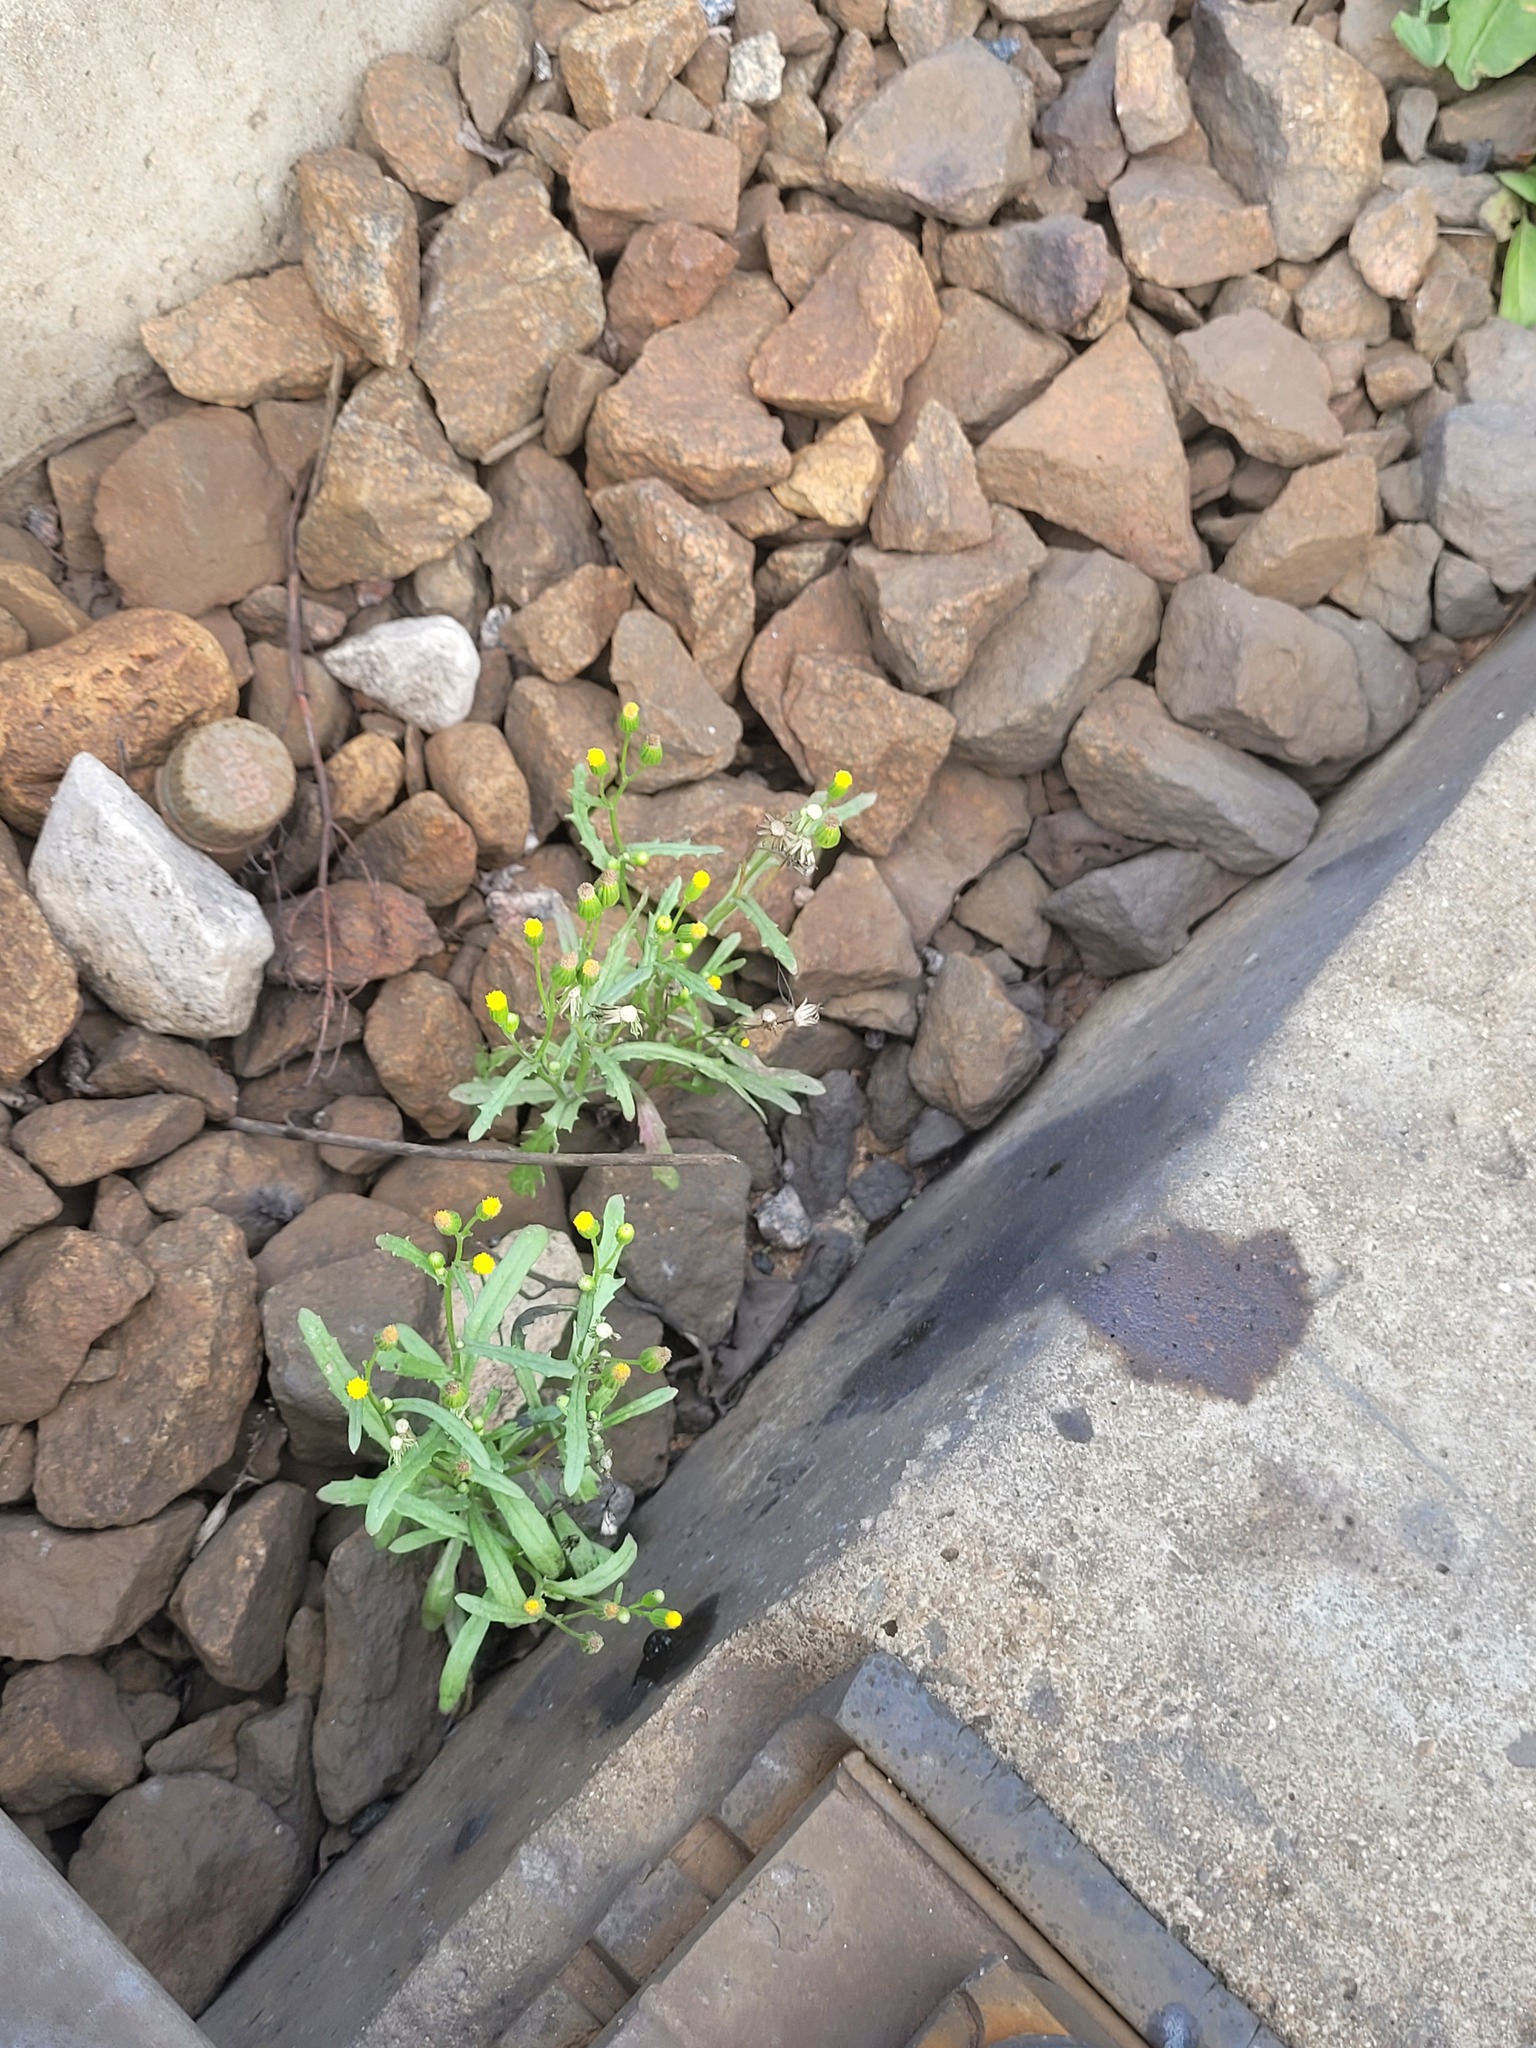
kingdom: Plantae
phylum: Tracheophyta
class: Magnoliopsida
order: Asterales
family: Asteraceae
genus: Senecio
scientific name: Senecio dubitabilis
